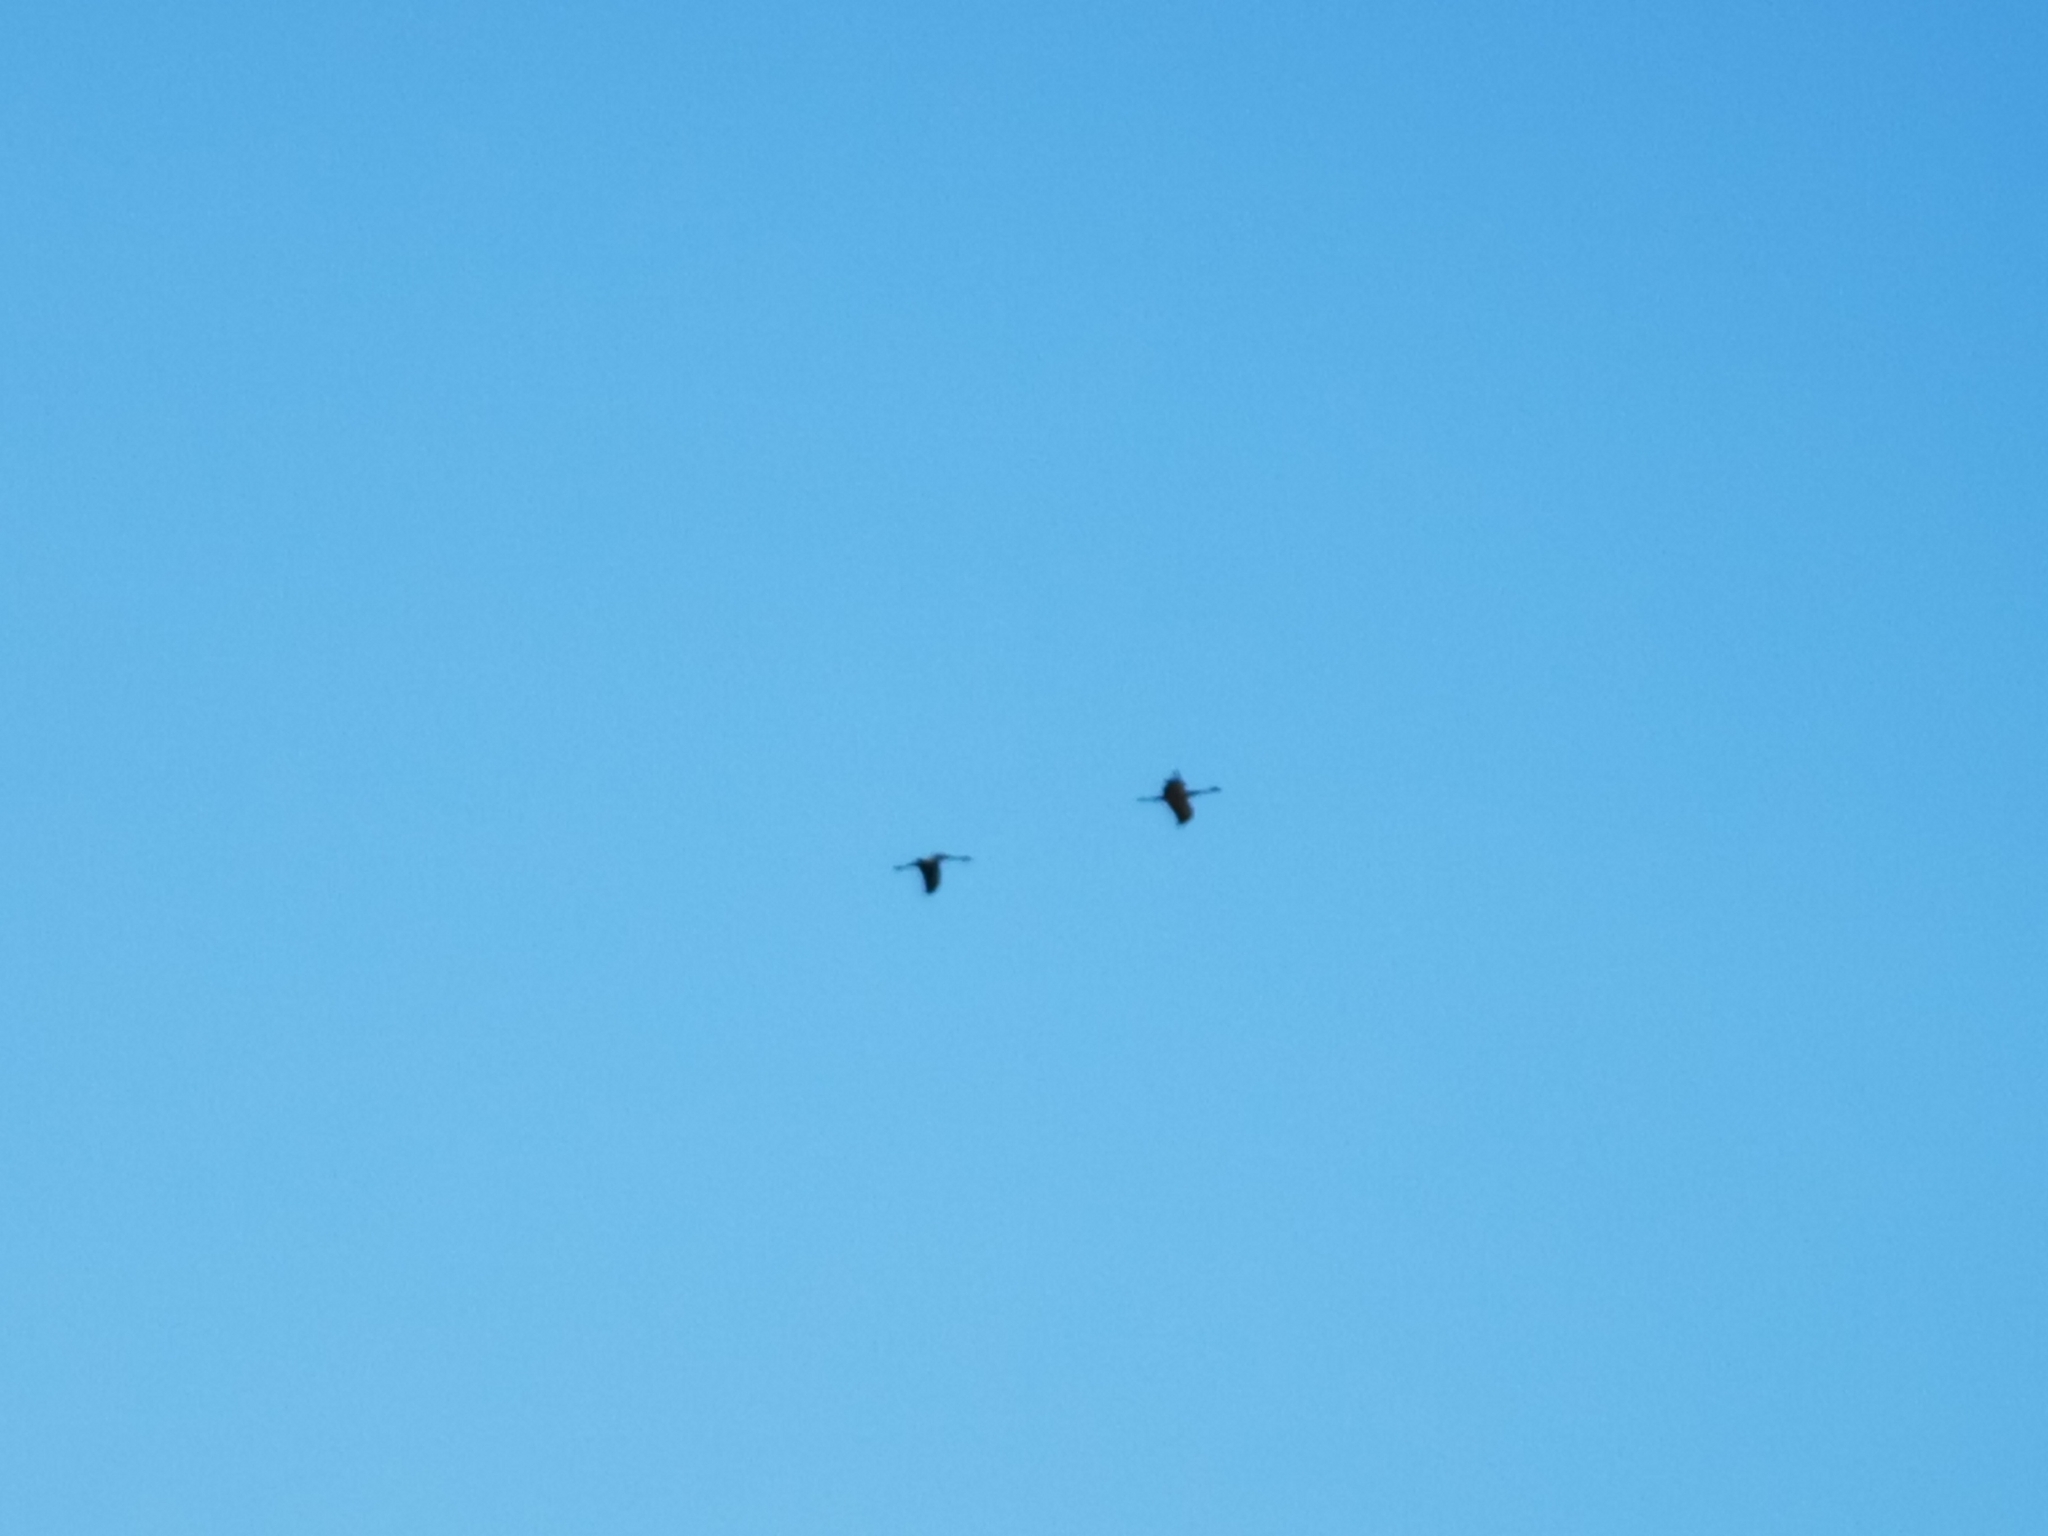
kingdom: Animalia
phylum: Chordata
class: Aves
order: Gruiformes
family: Gruidae
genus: Grus
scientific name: Grus grus
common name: Common crane
